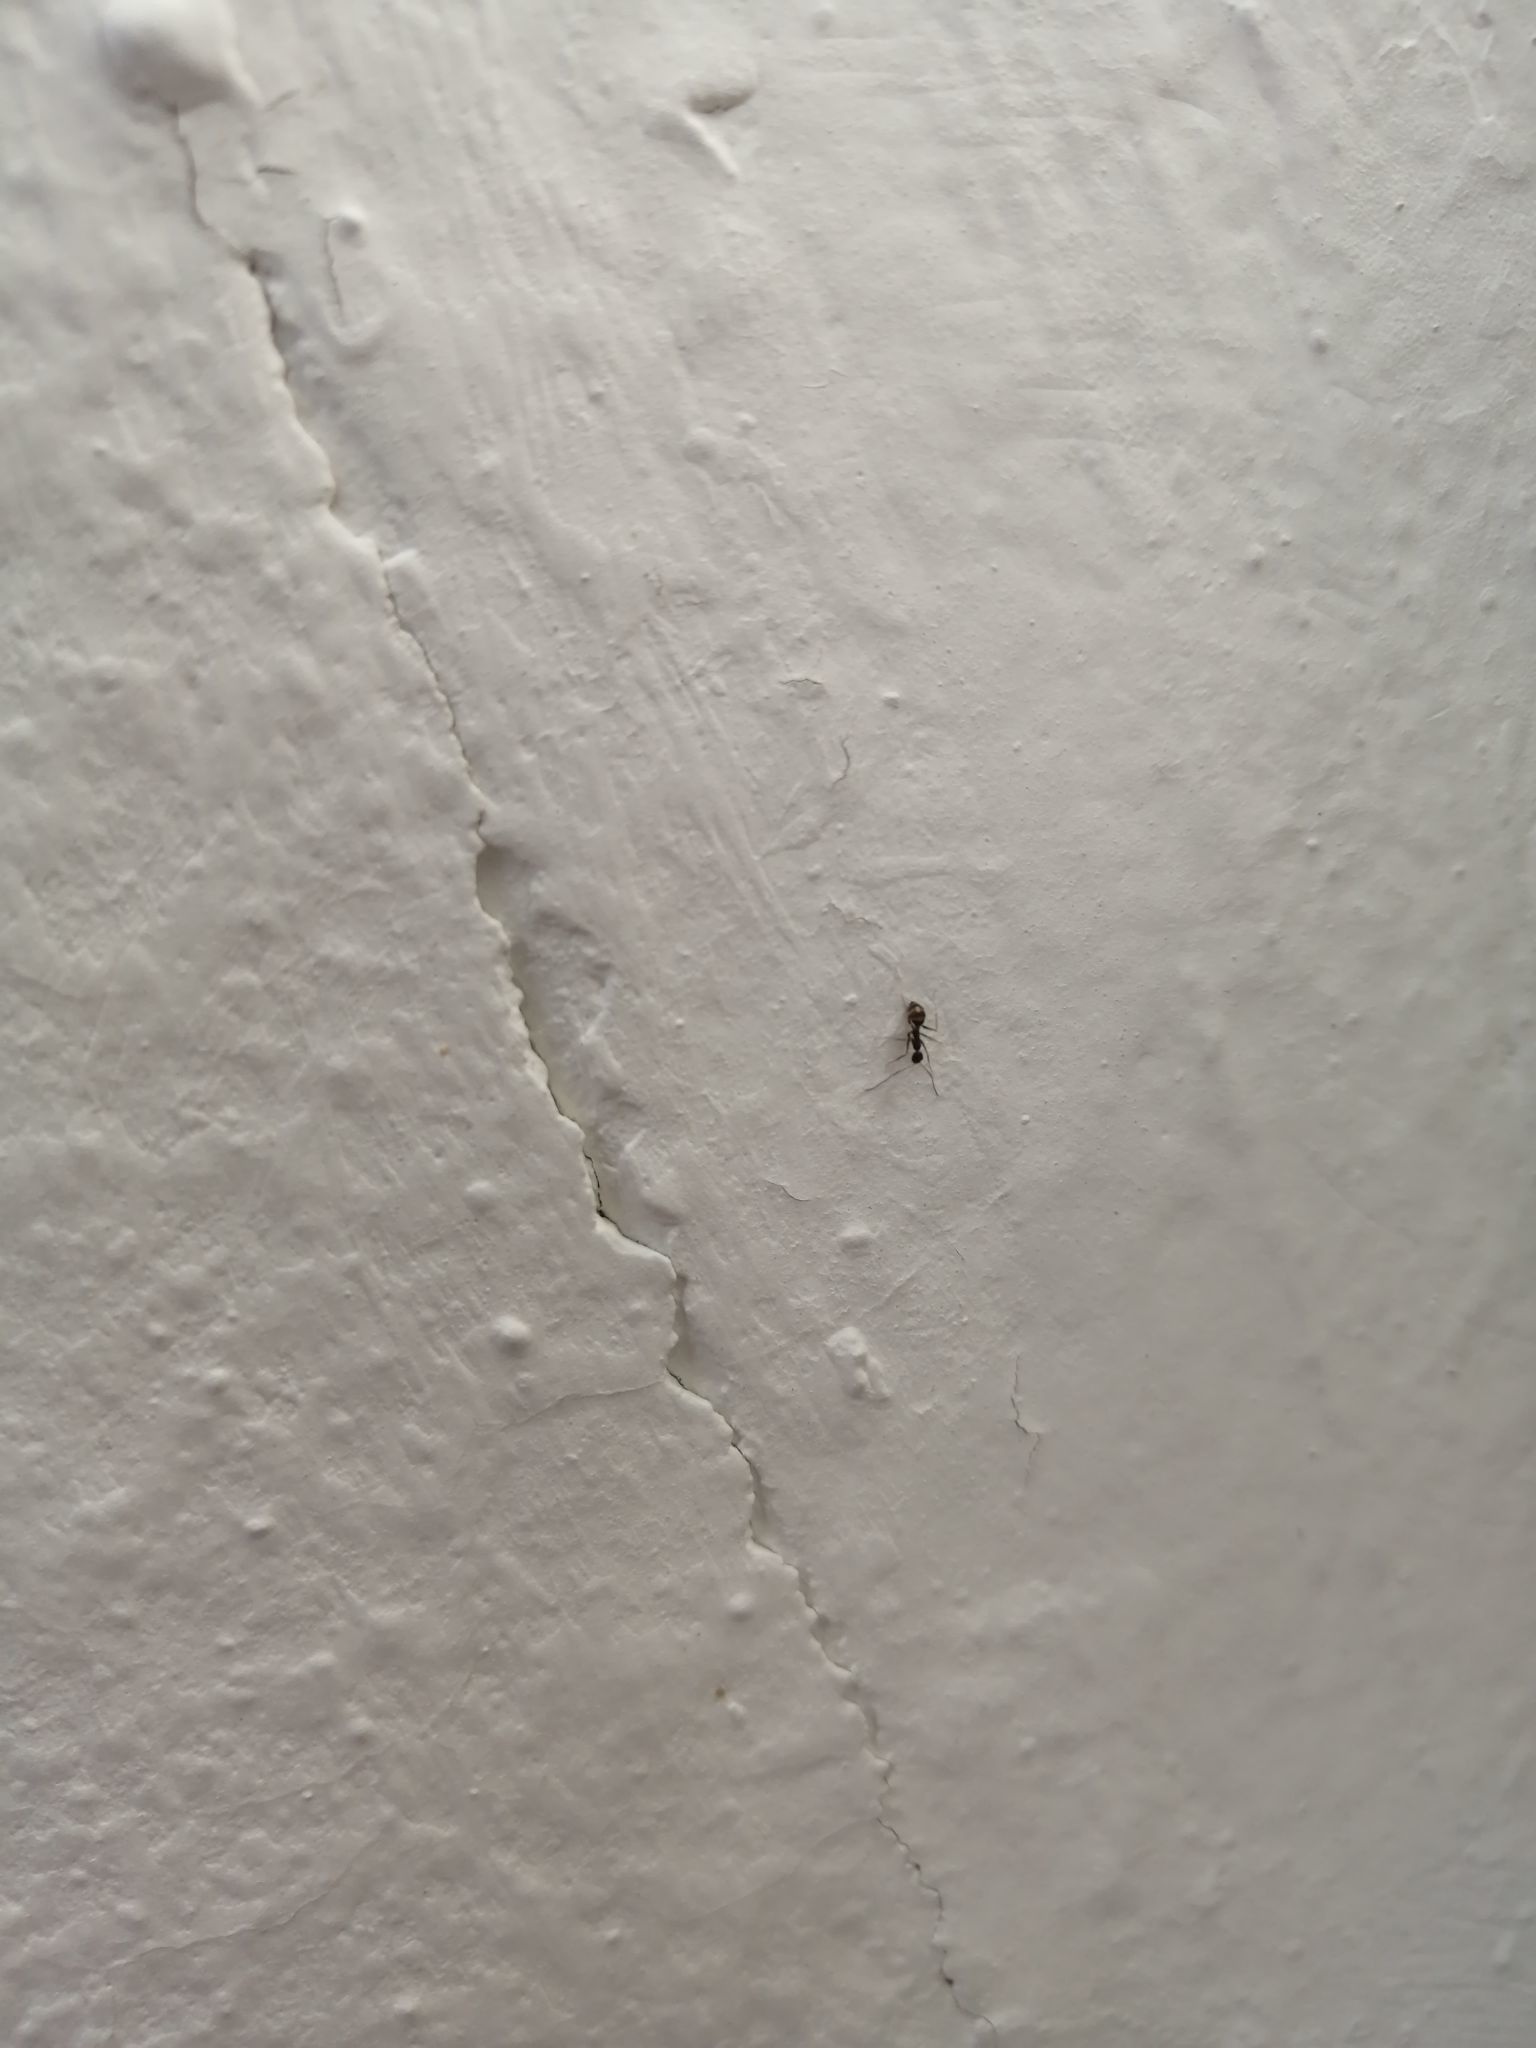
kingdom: Animalia
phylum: Arthropoda
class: Insecta
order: Hymenoptera
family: Formicidae
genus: Paratrechina
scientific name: Paratrechina longicornis
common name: Longhorned crazy ant
